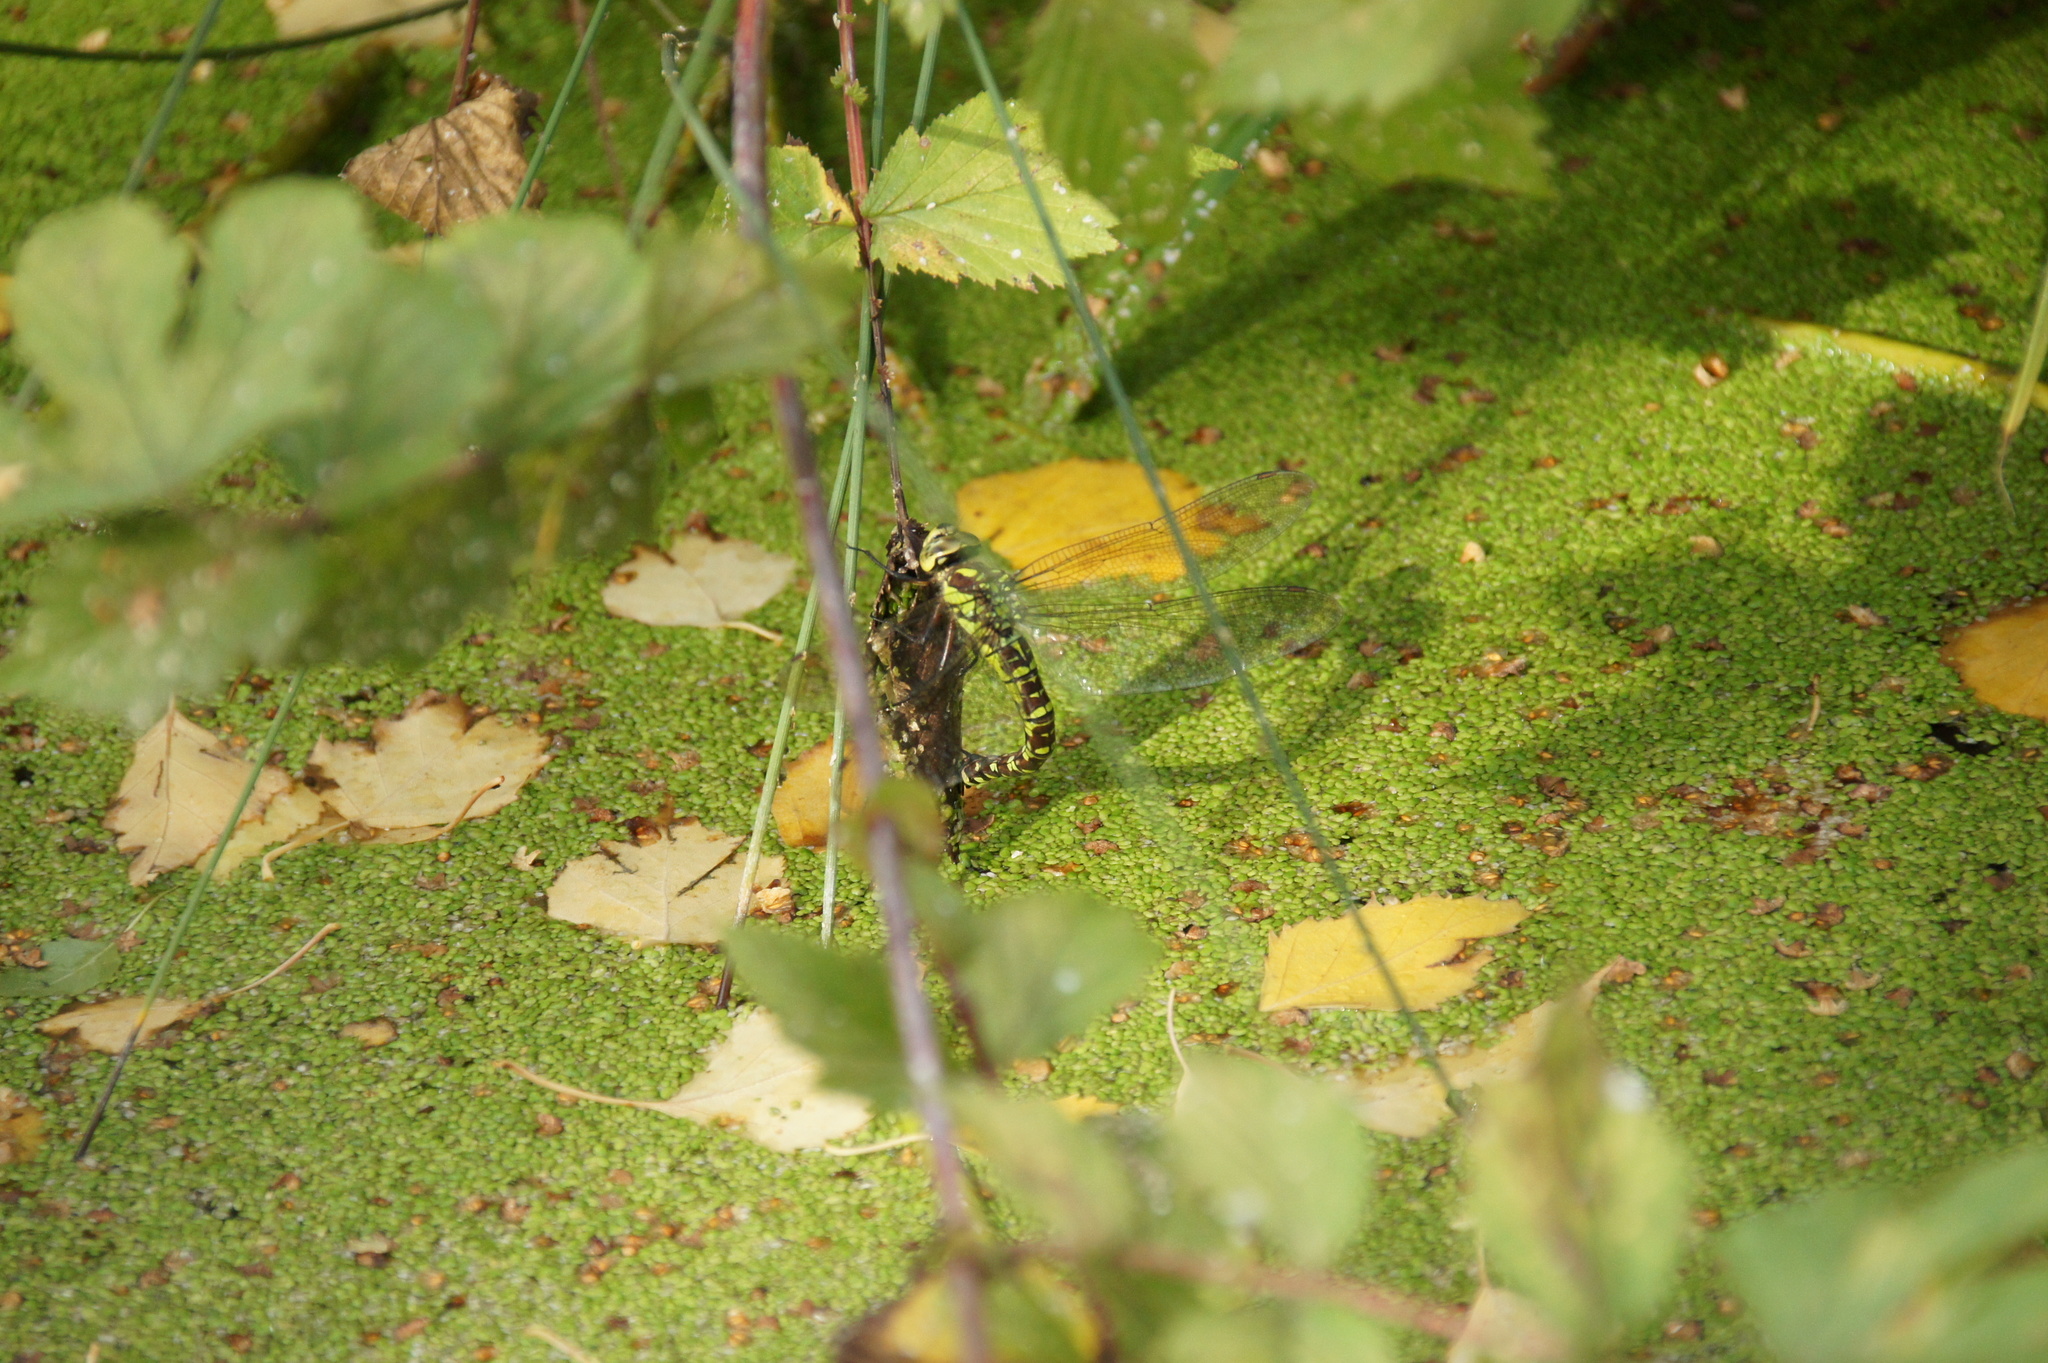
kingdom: Animalia
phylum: Arthropoda
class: Insecta
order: Odonata
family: Aeshnidae
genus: Aeshna
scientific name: Aeshna cyanea
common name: Southern hawker
